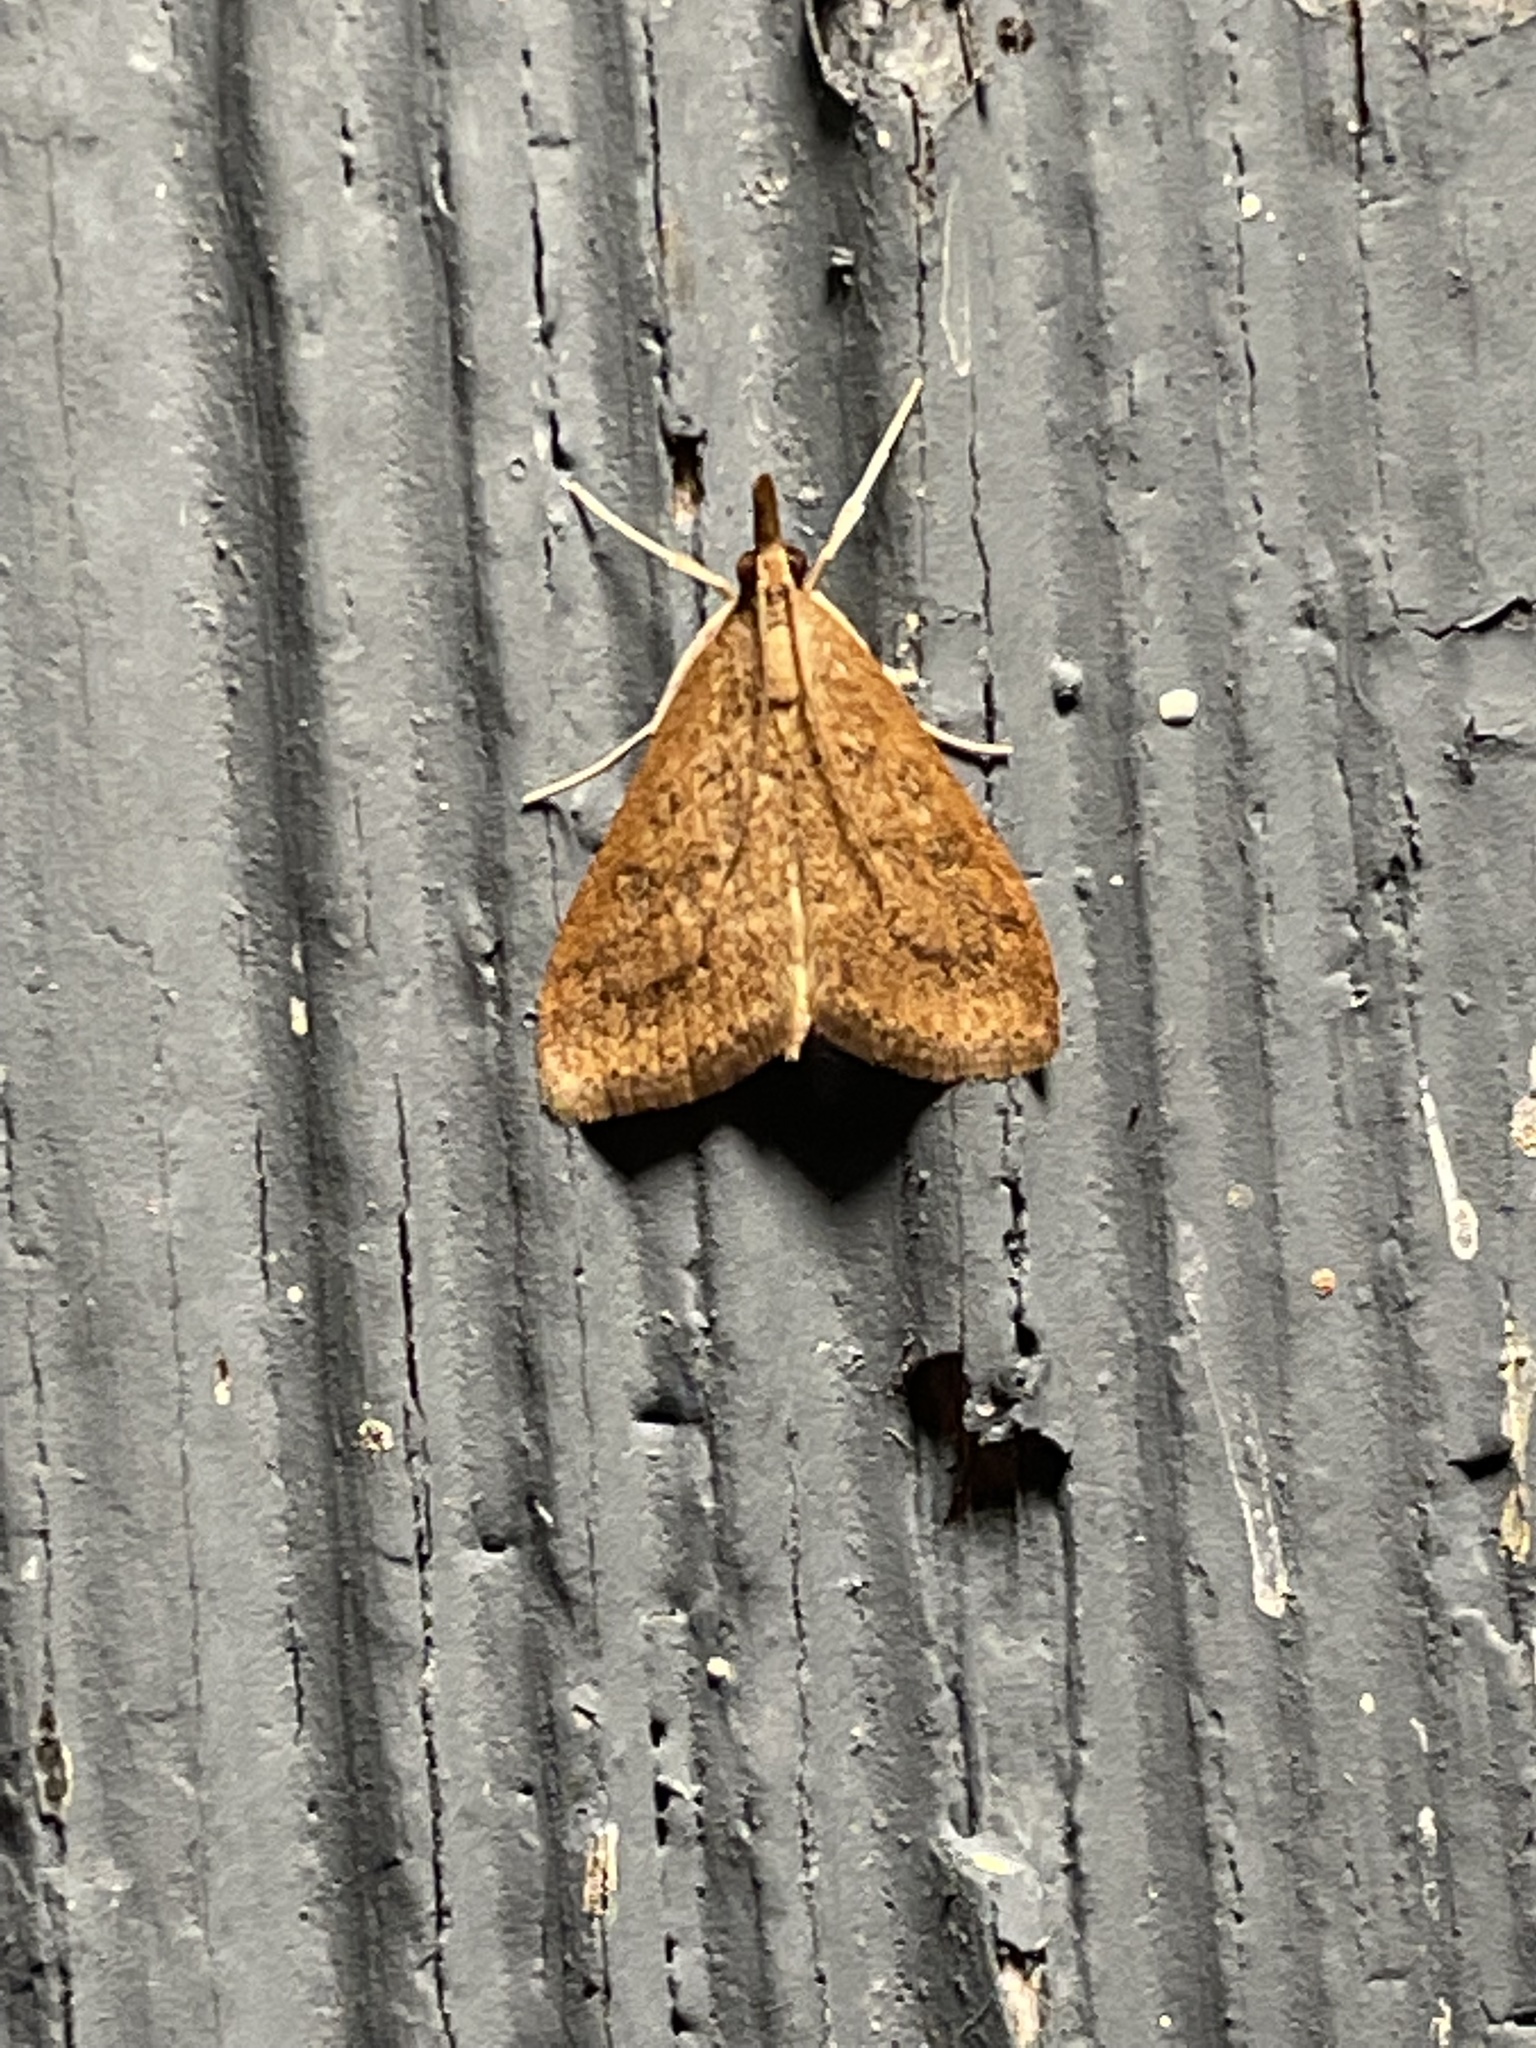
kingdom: Animalia
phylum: Arthropoda
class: Insecta
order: Lepidoptera
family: Crambidae
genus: Udea
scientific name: Udea rubigalis
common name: Celery leaftier moth
